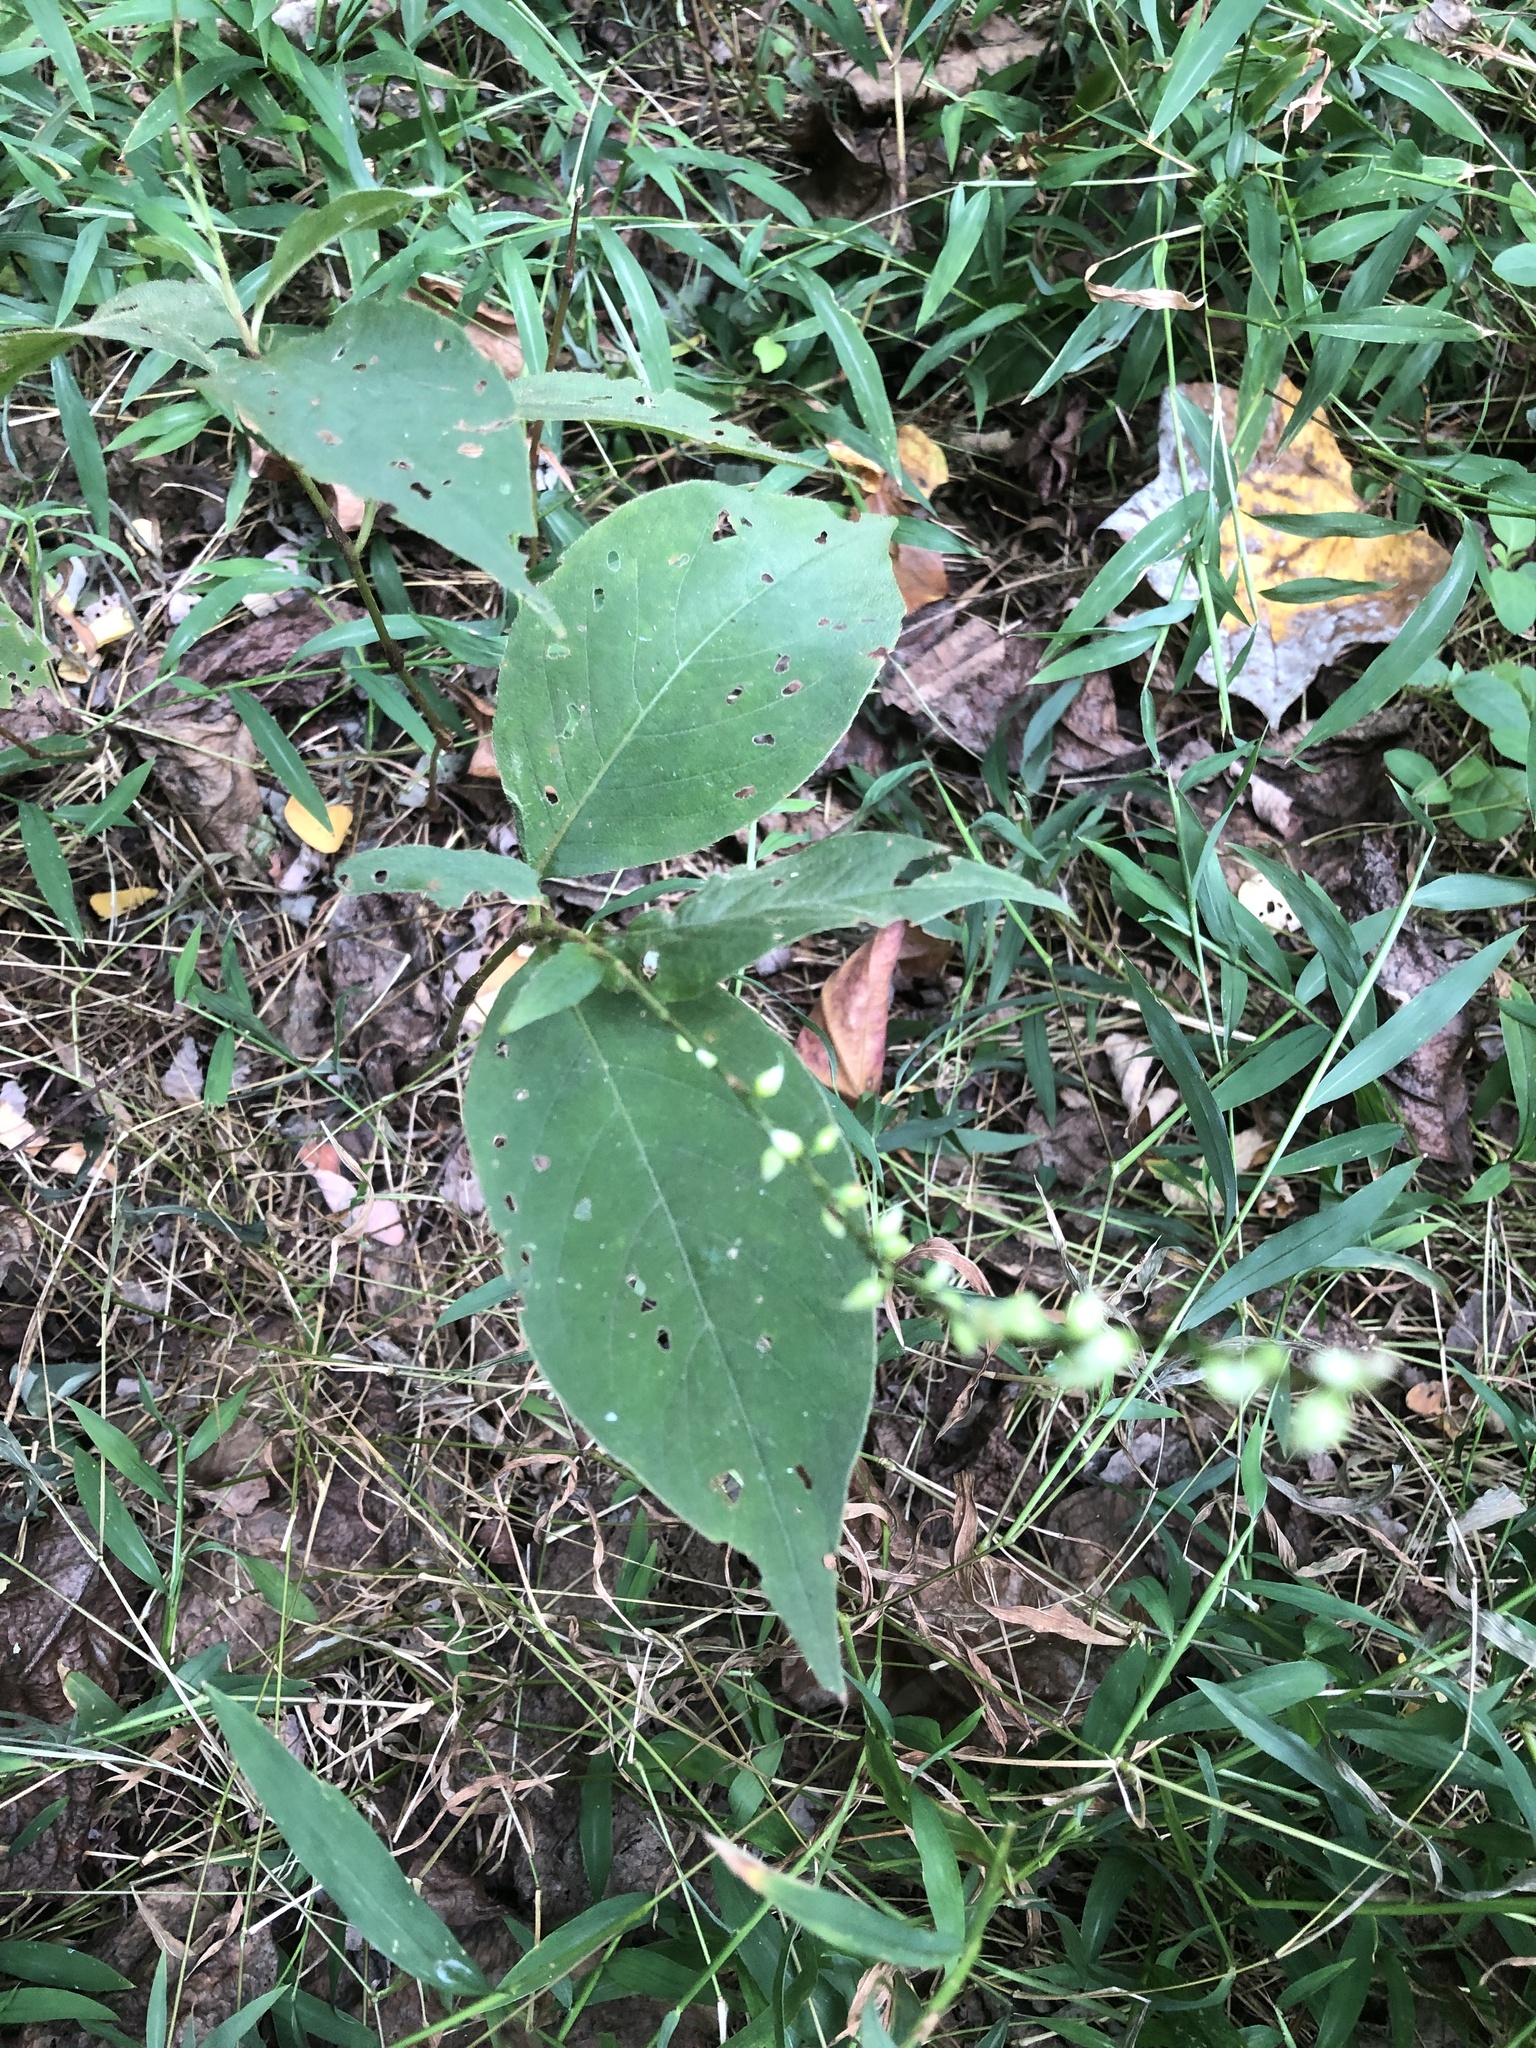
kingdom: Plantae
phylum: Tracheophyta
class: Magnoliopsida
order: Caryophyllales
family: Polygonaceae
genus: Persicaria
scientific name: Persicaria virginiana
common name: Jumpseed
